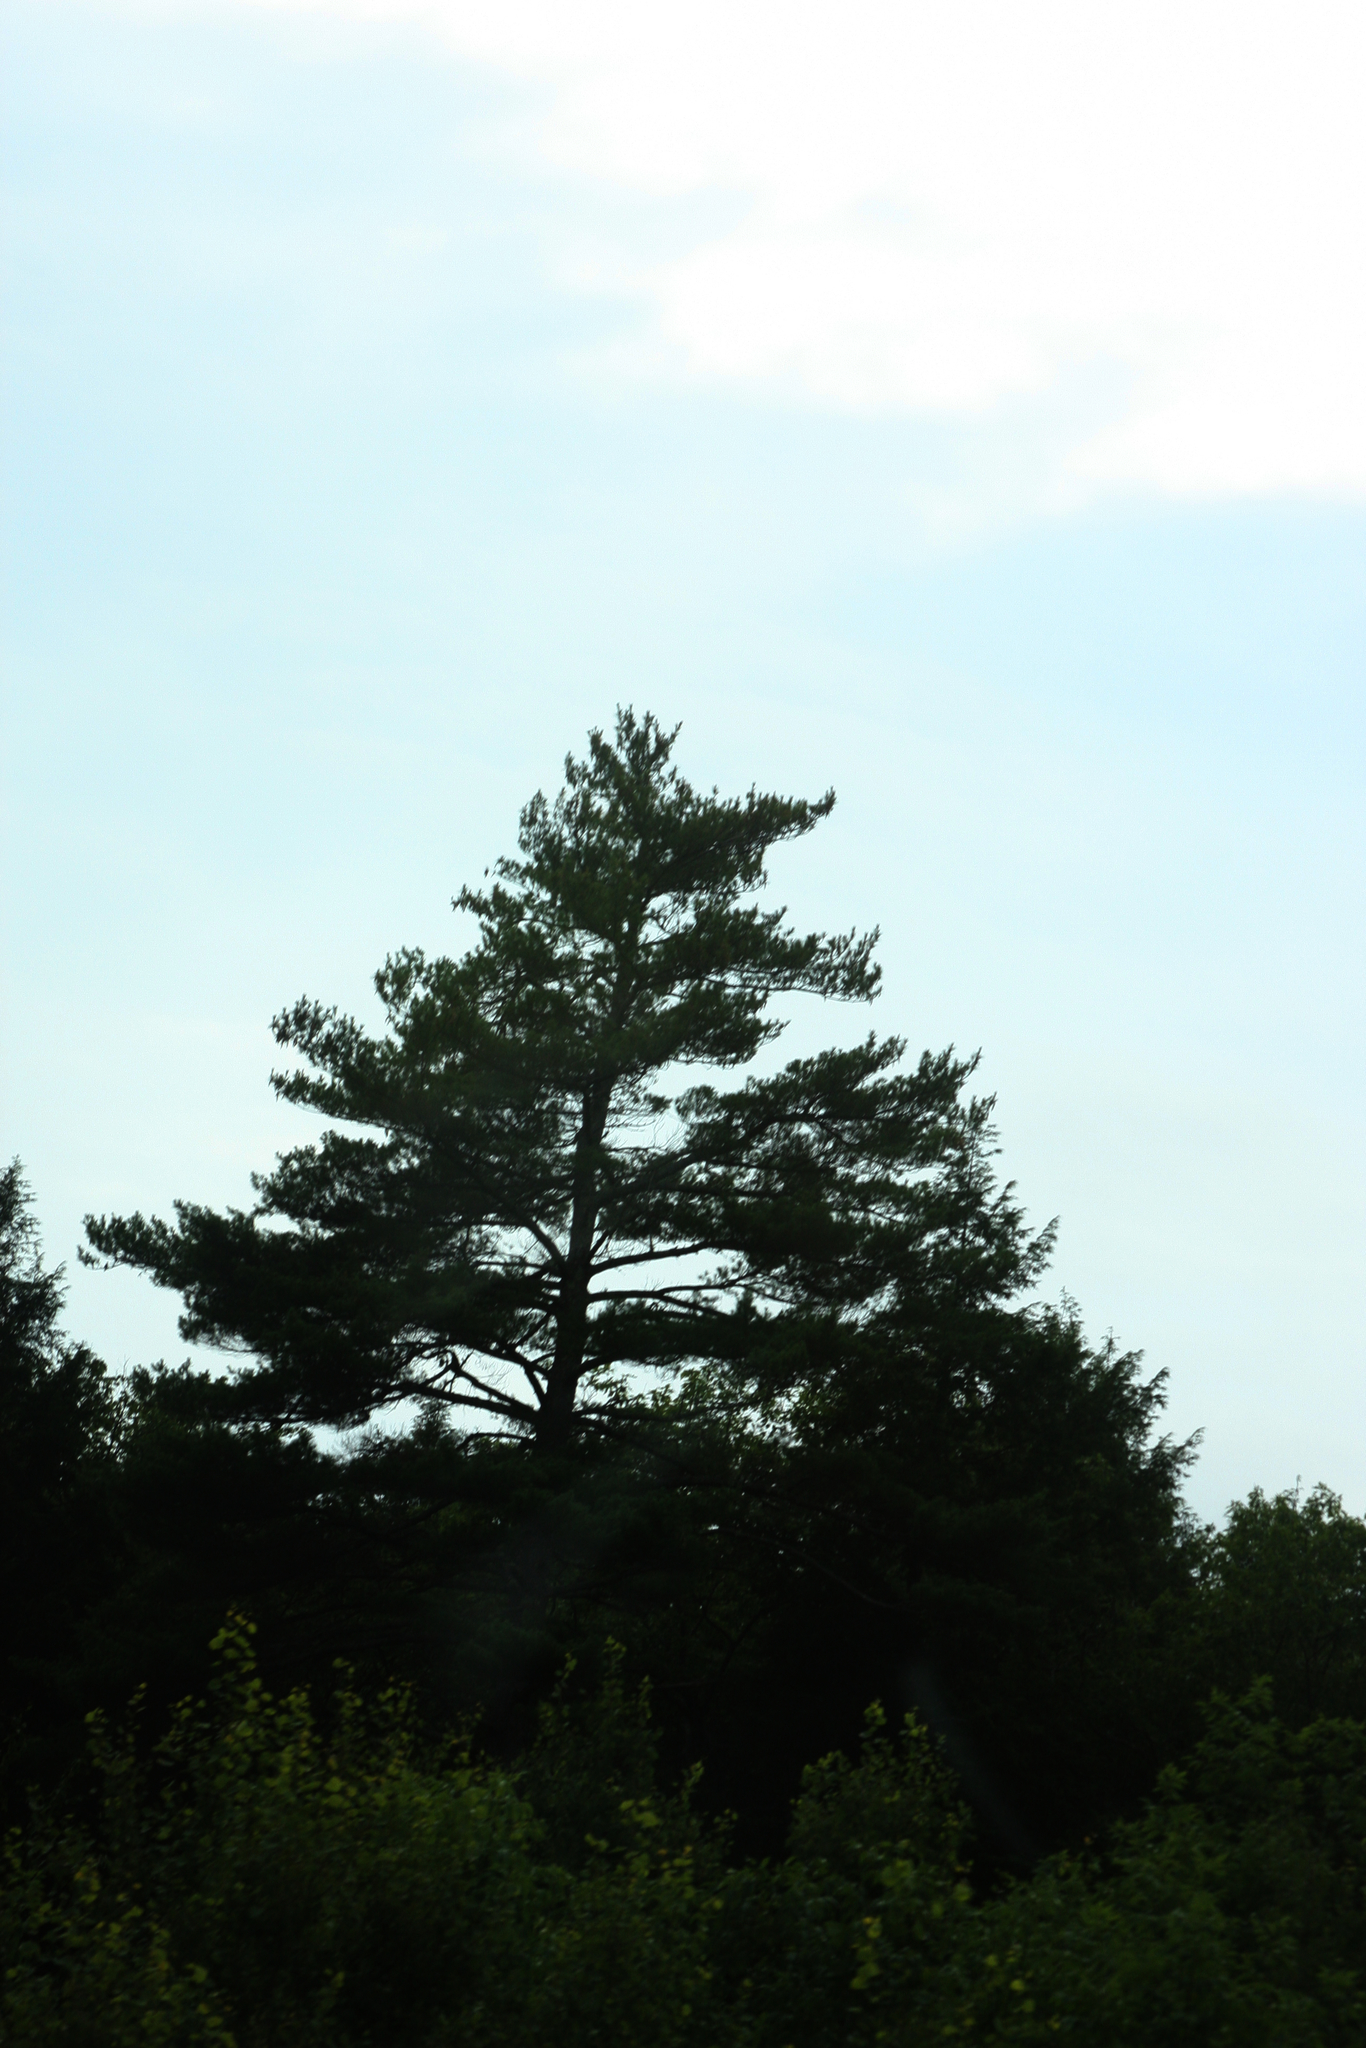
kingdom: Plantae
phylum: Tracheophyta
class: Pinopsida
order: Pinales
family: Pinaceae
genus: Pinus
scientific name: Pinus strobus
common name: Weymouth pine
